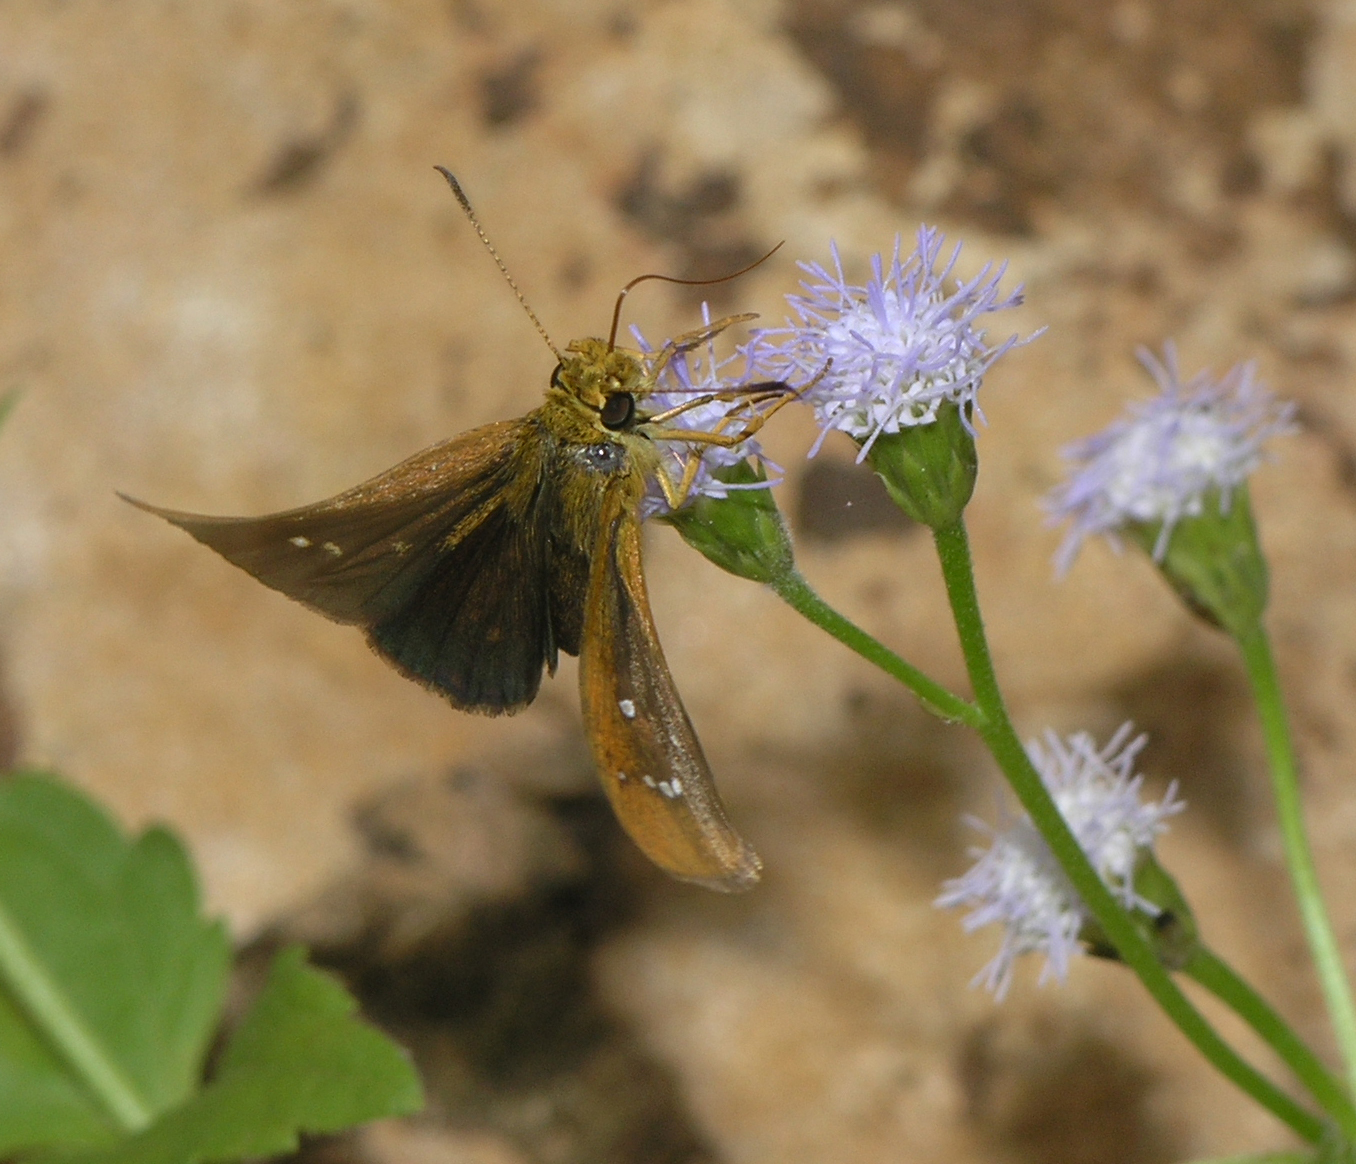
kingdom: Animalia
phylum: Arthropoda
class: Insecta
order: Lepidoptera
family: Hesperiidae
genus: Iambrix
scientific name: Iambrix salsala
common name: Chestnut bob
